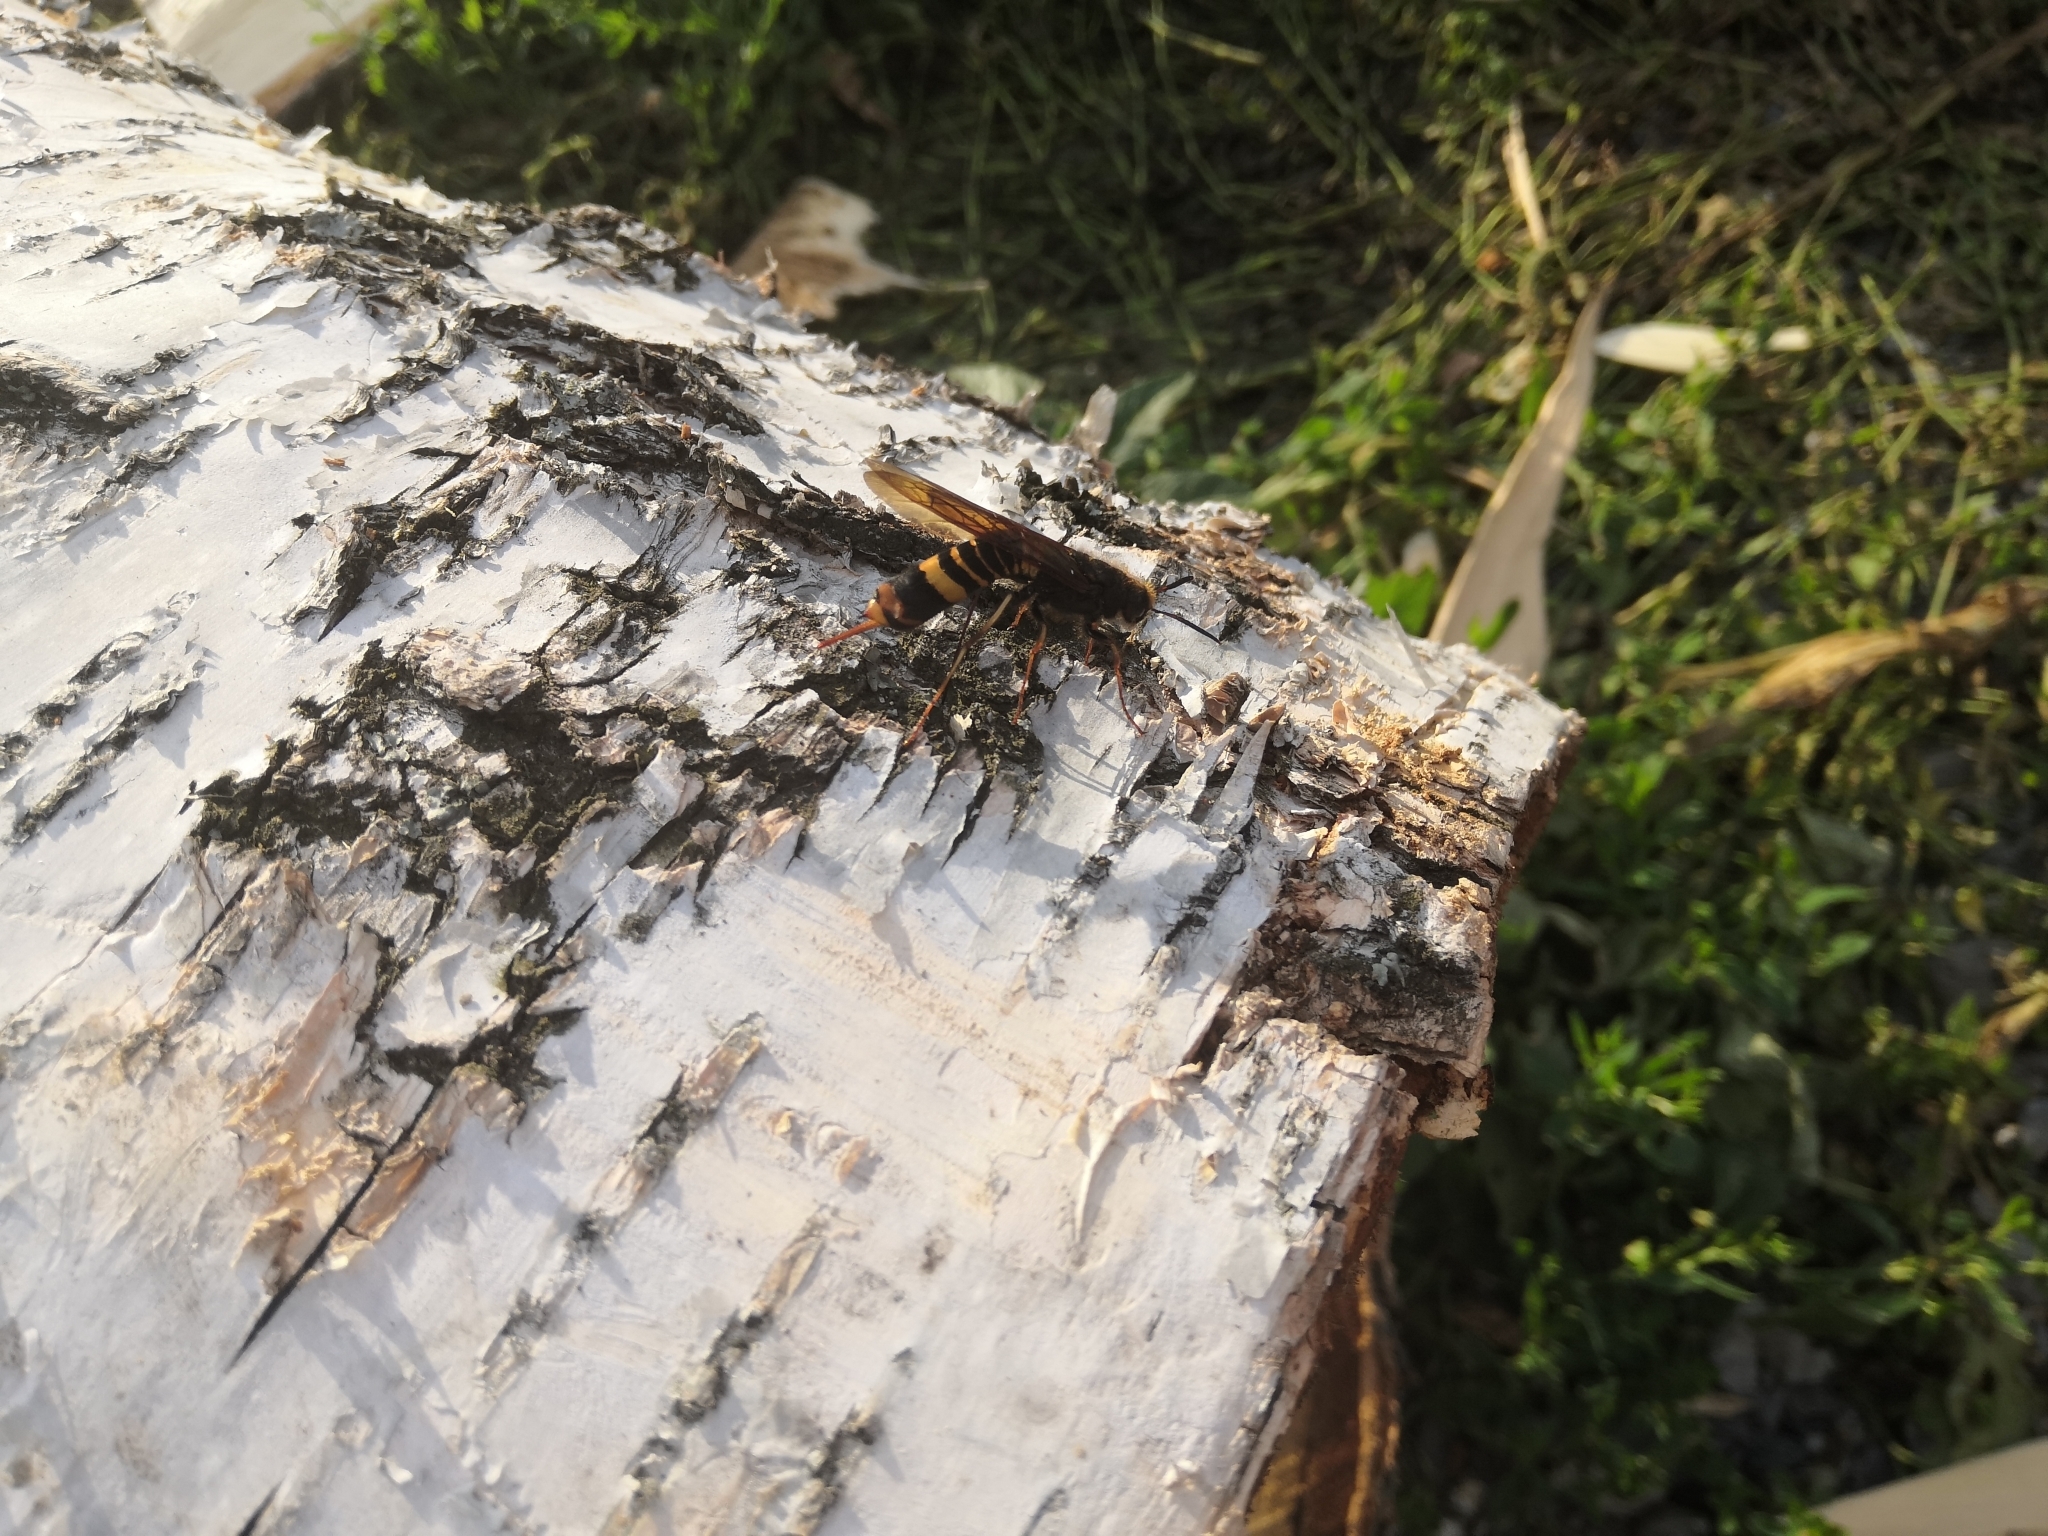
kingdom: Animalia
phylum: Arthropoda
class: Insecta
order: Hymenoptera
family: Siricidae
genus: Tremex
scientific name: Tremex fuscicornis
